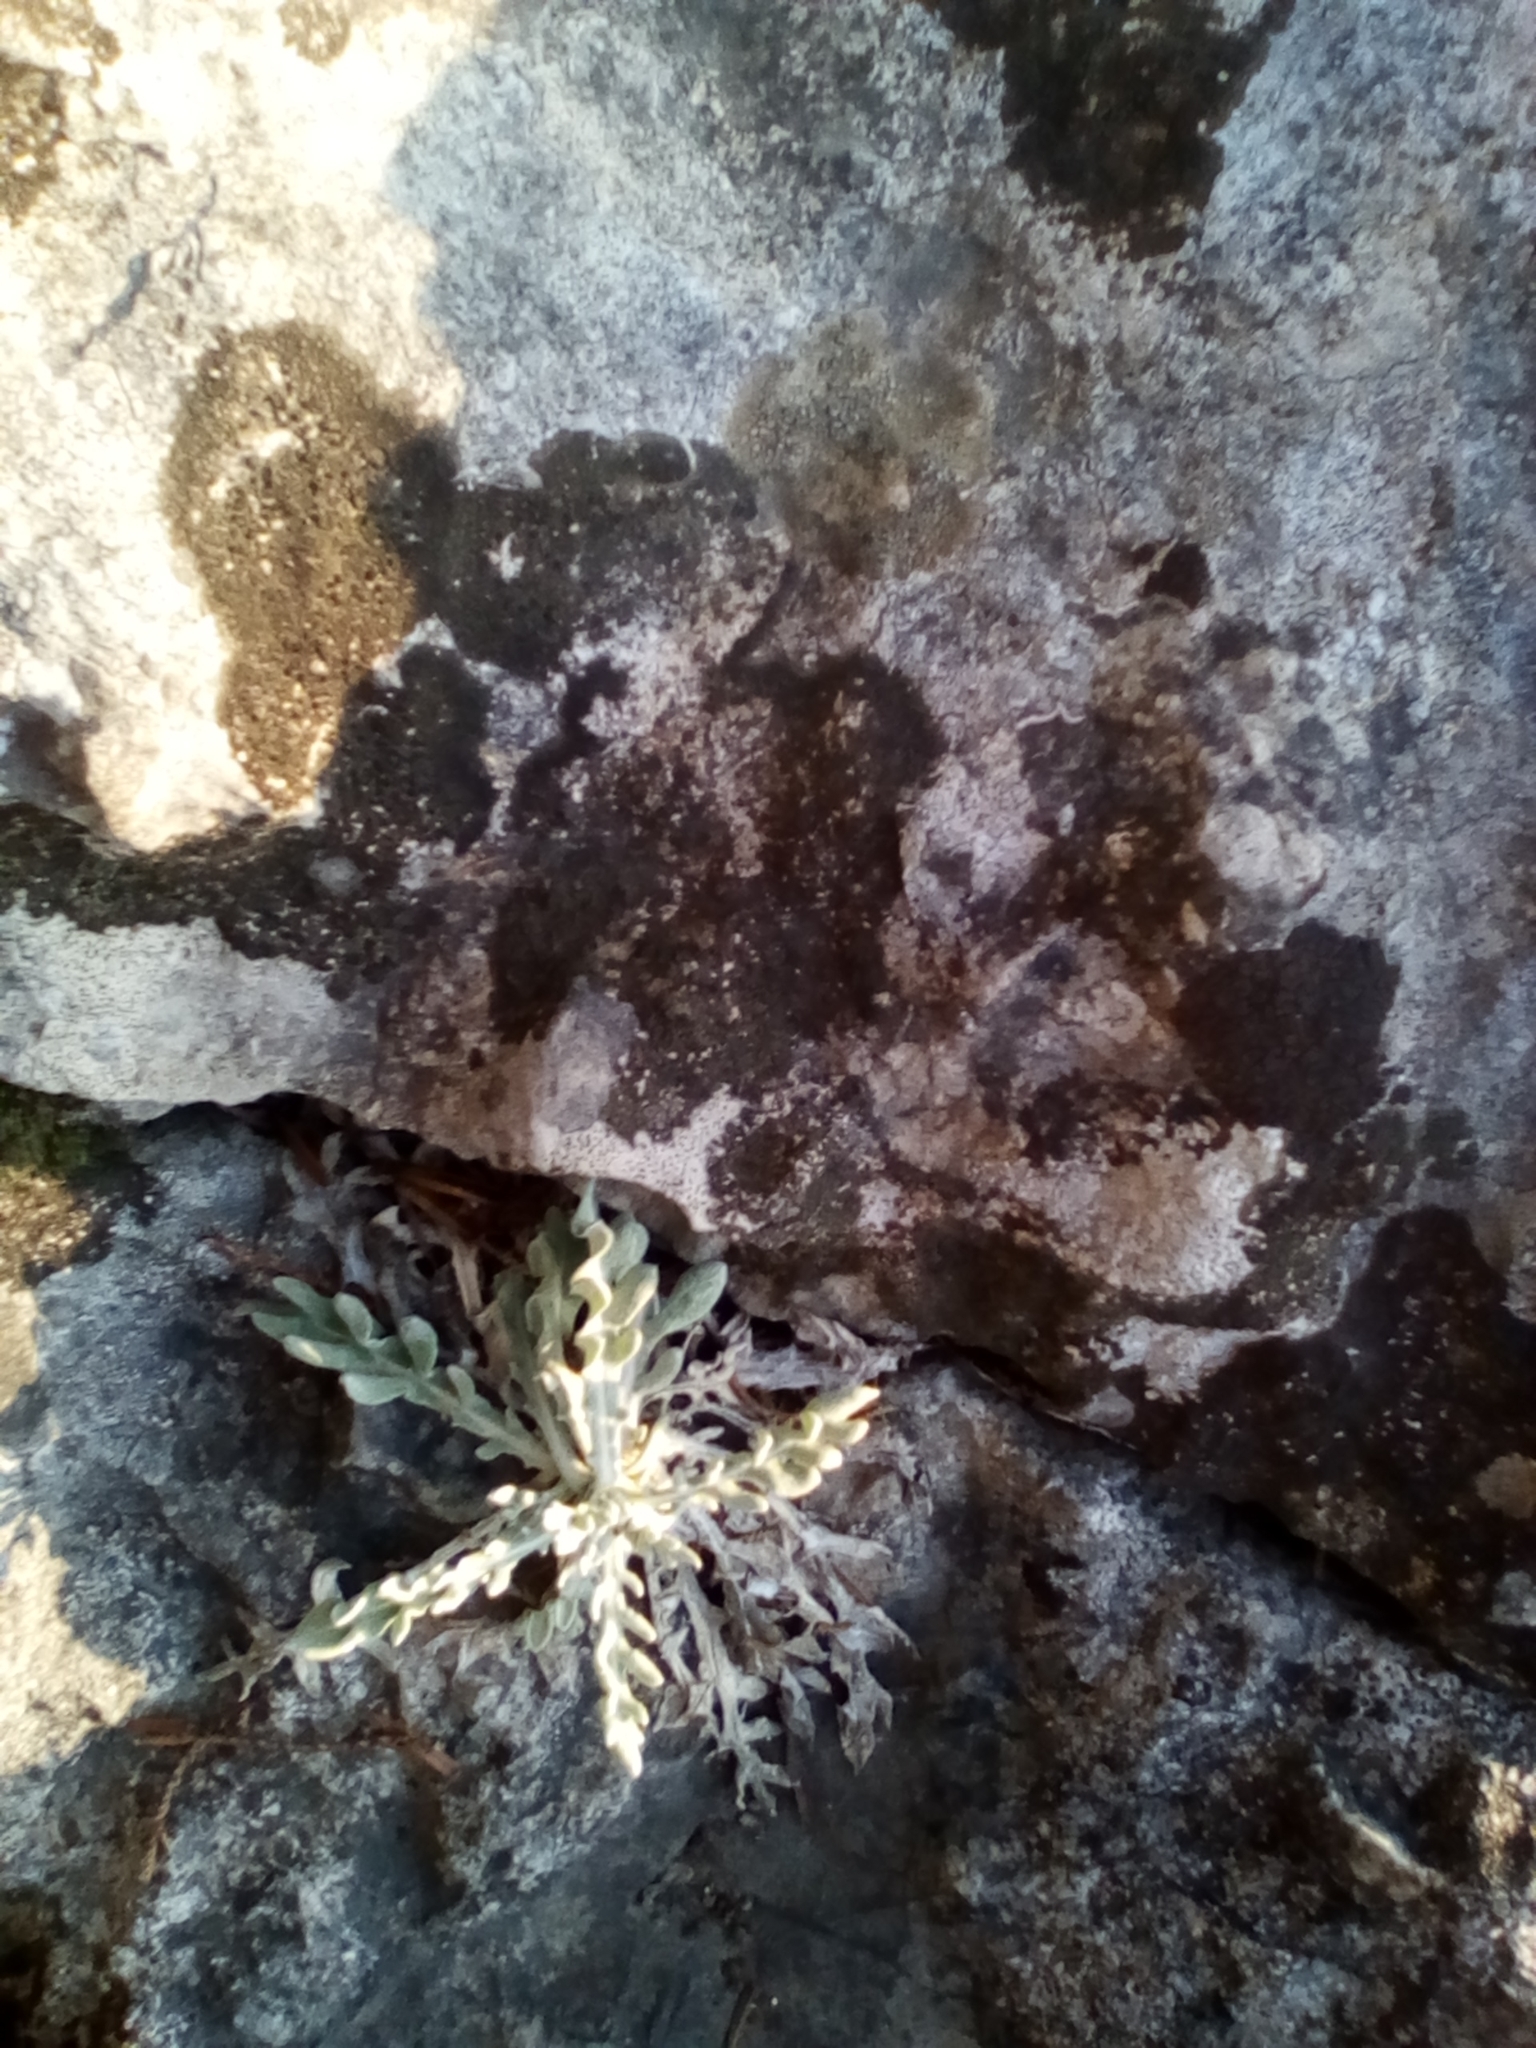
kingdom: Plantae
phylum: Tracheophyta
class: Magnoliopsida
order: Asterales
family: Asteraceae
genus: Jurinea
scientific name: Jurinea roegneri
